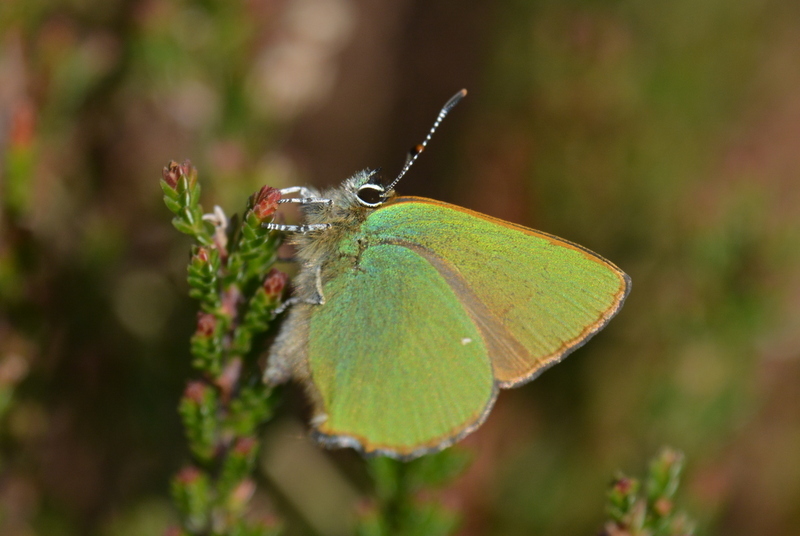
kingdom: Animalia
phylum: Arthropoda
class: Insecta
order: Lepidoptera
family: Lycaenidae
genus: Callophrys
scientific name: Callophrys rubi
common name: Green hairstreak
